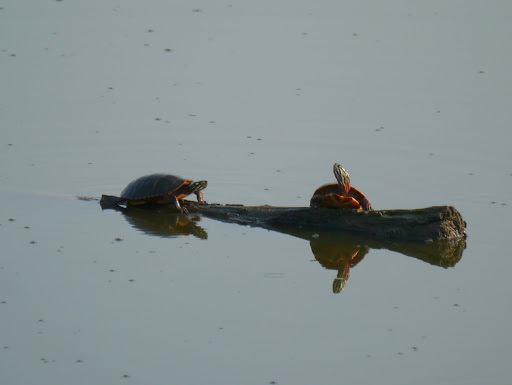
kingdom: Animalia
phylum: Chordata
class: Testudines
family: Emydidae
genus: Chrysemys
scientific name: Chrysemys picta
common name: Painted turtle
